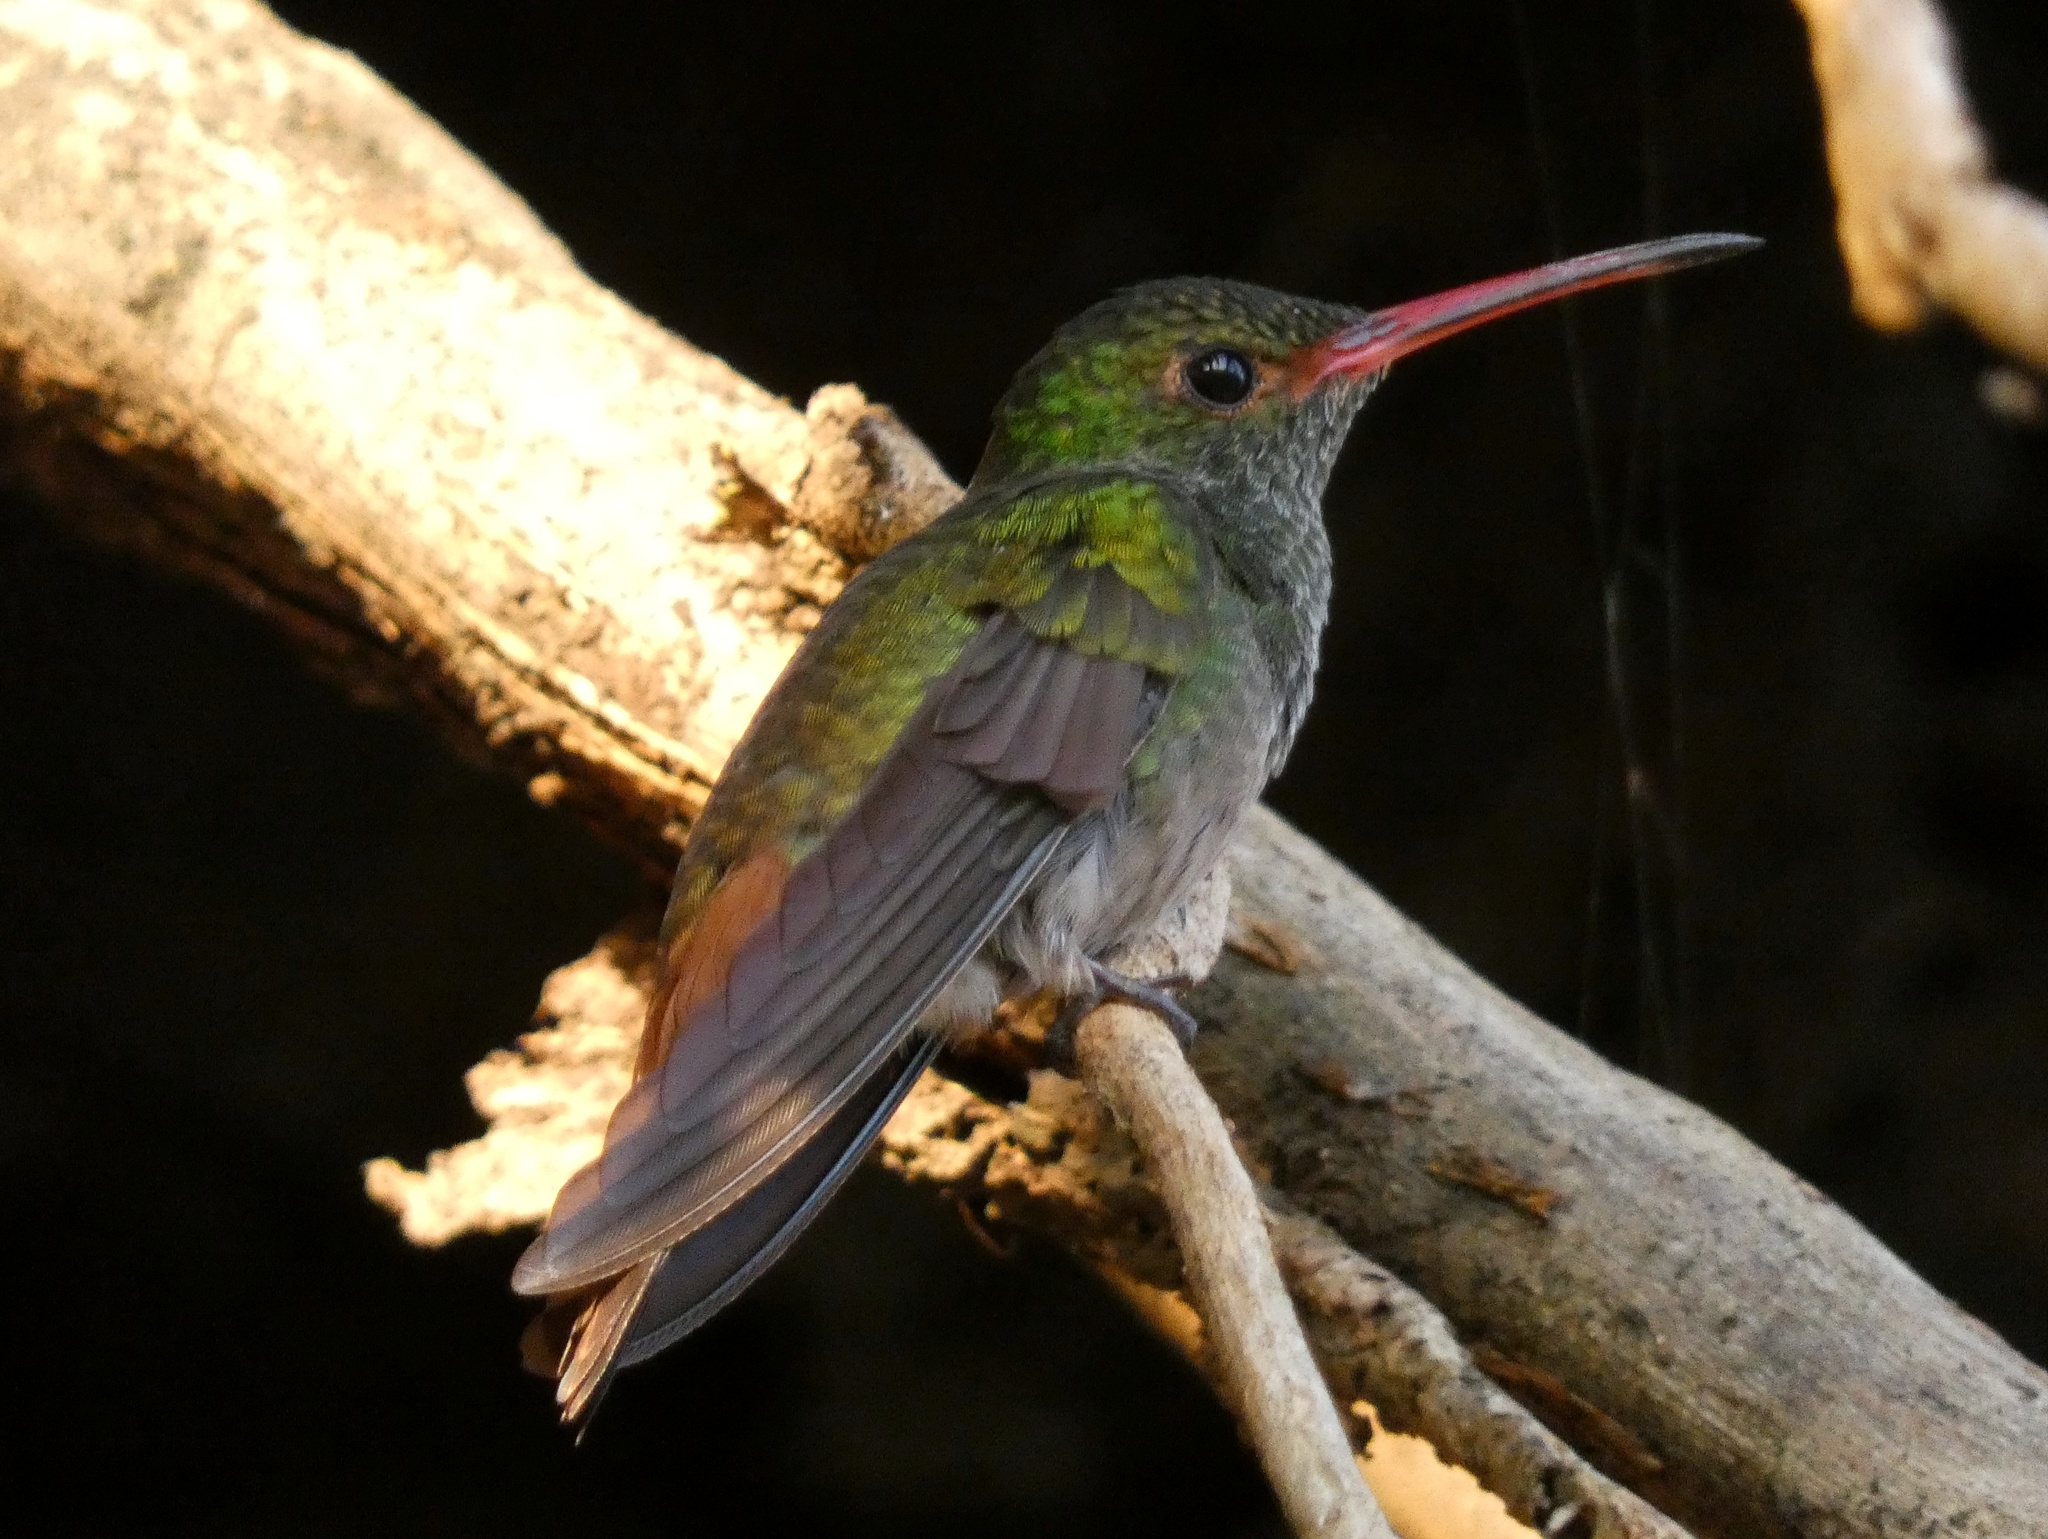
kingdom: Animalia
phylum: Chordata
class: Aves
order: Apodiformes
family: Trochilidae
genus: Amazilia
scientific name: Amazilia tzacatl
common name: Rufous-tailed hummingbird
